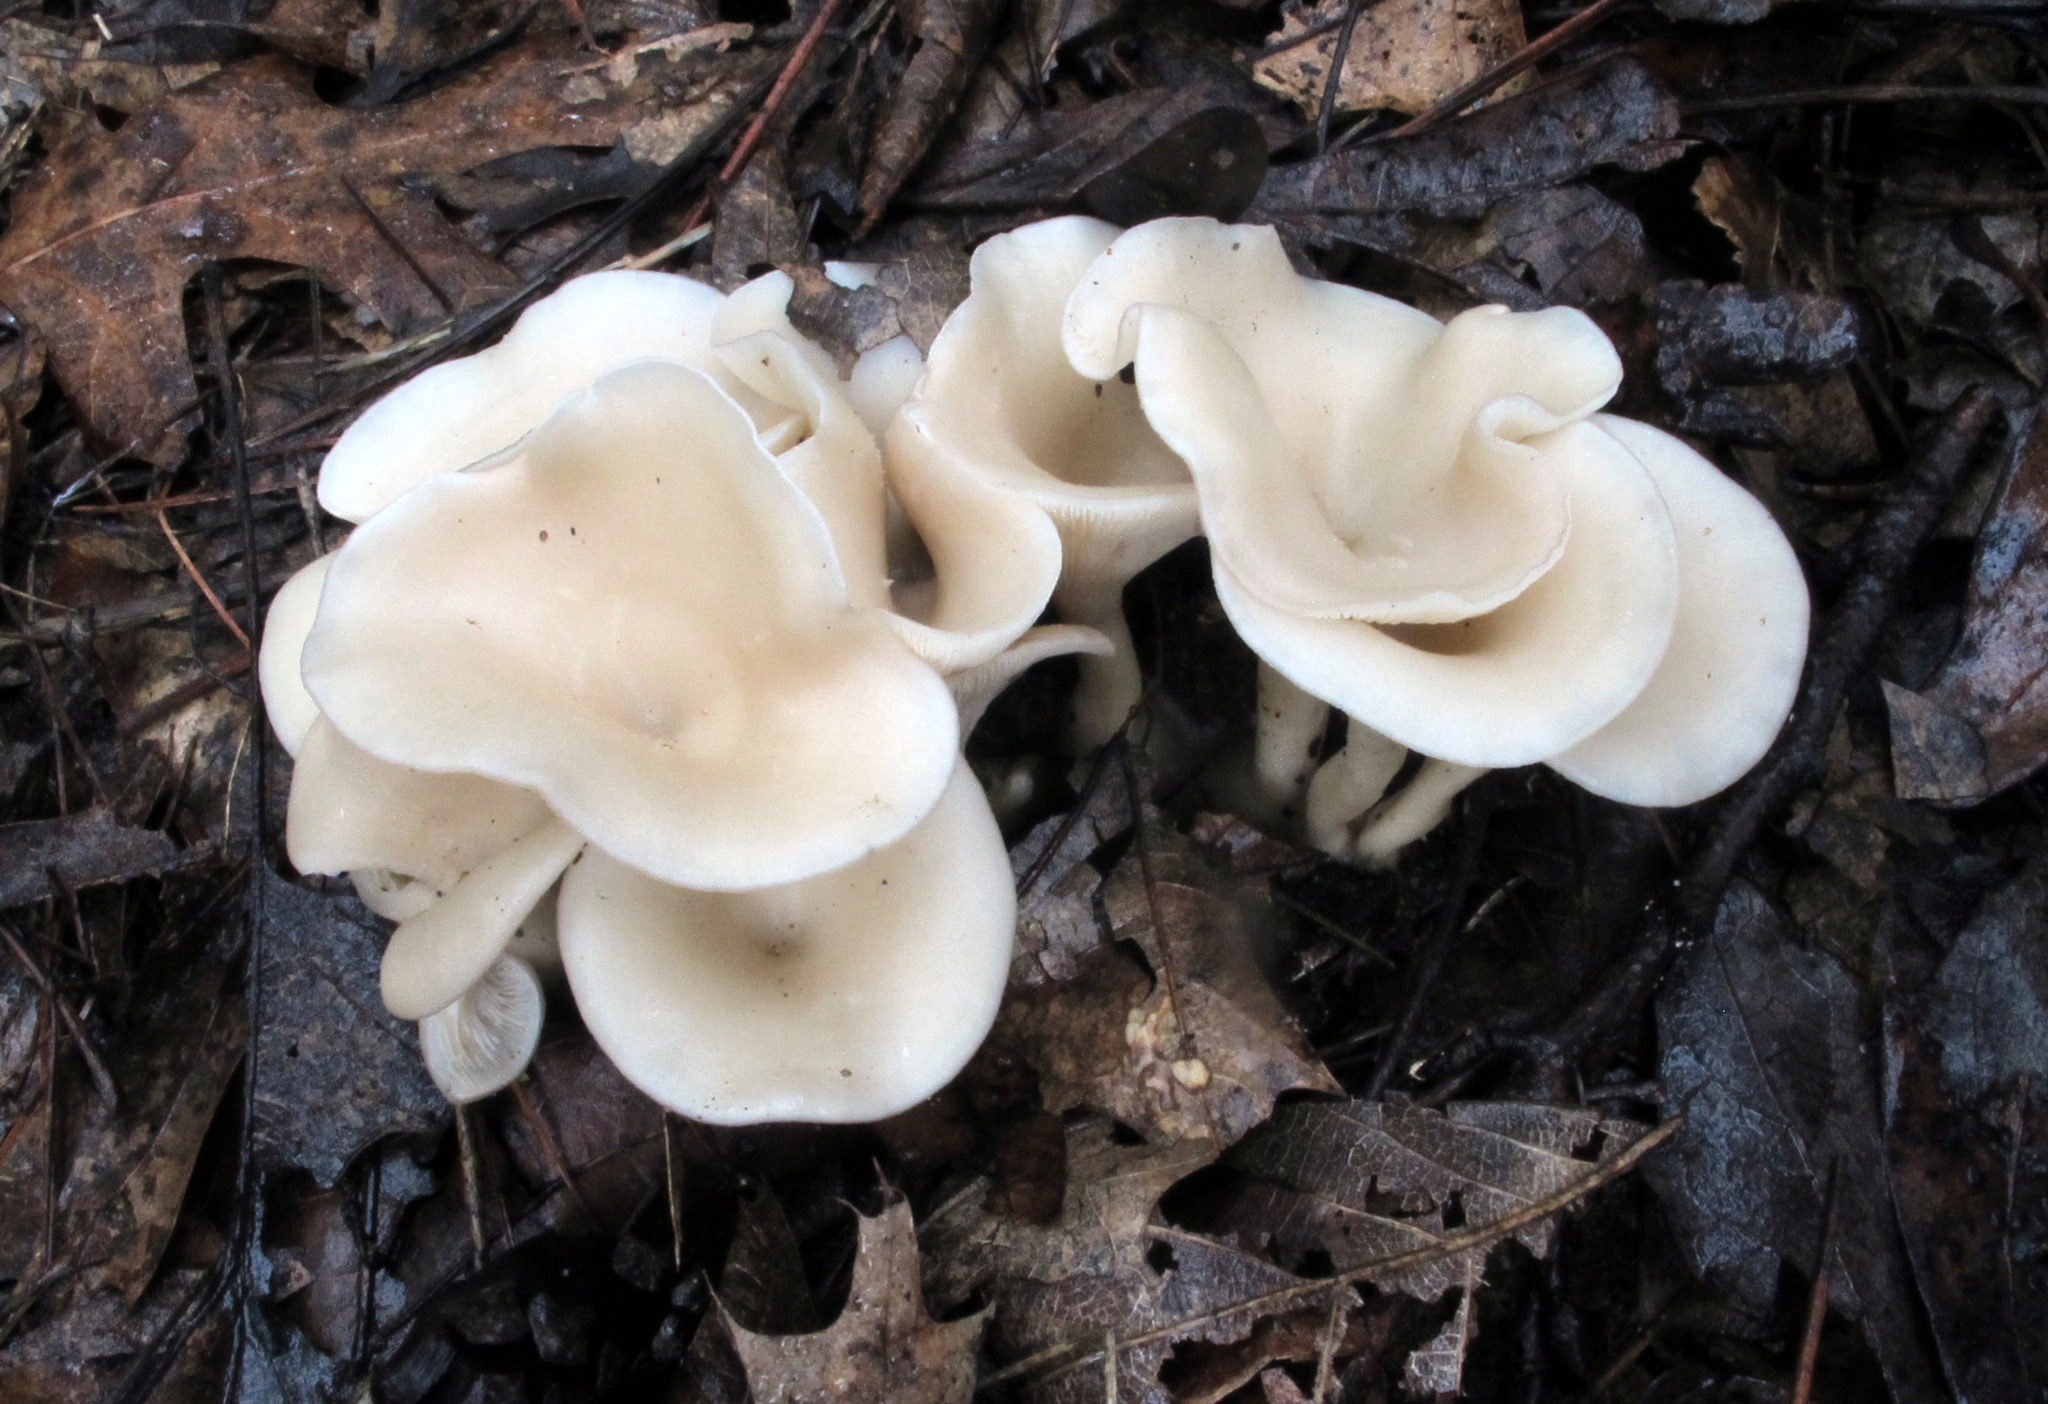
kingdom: Fungi
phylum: Basidiomycota
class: Agaricomycetes
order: Agaricales
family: Tricholomataceae
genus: Singerocybe
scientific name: Singerocybe adirondackensis
